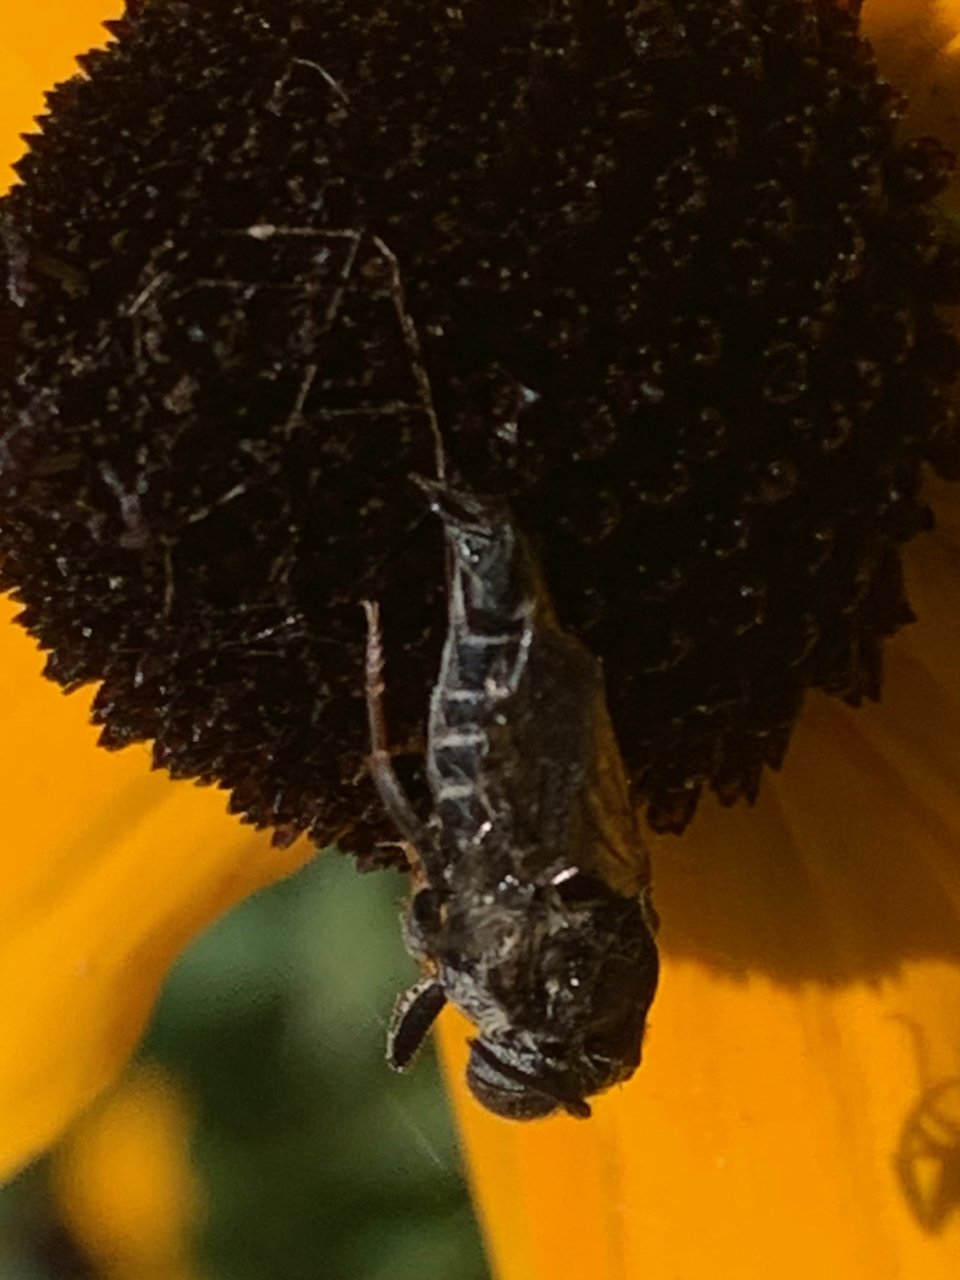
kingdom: Animalia
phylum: Arthropoda
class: Insecta
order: Hymenoptera
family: Megachilidae
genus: Coelioxys
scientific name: Coelioxys rufitarsis
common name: Red-footed sharptail
